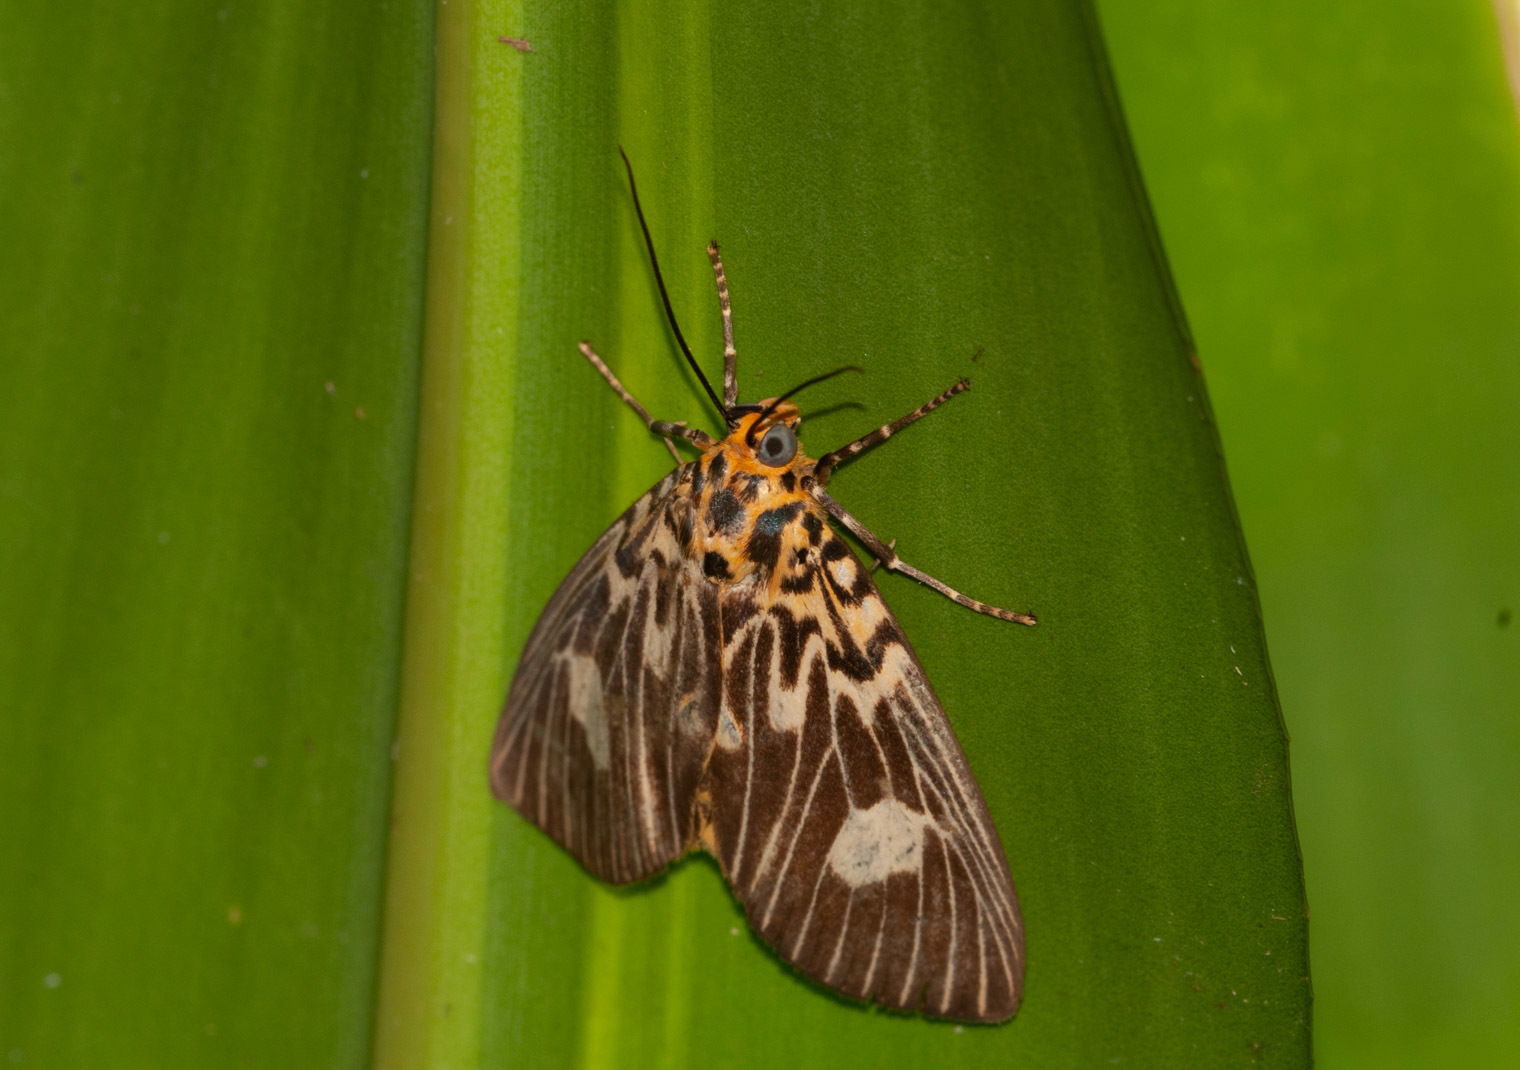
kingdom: Animalia
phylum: Arthropoda
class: Insecta
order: Lepidoptera
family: Erebidae
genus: Asota
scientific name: Asota plagiata
